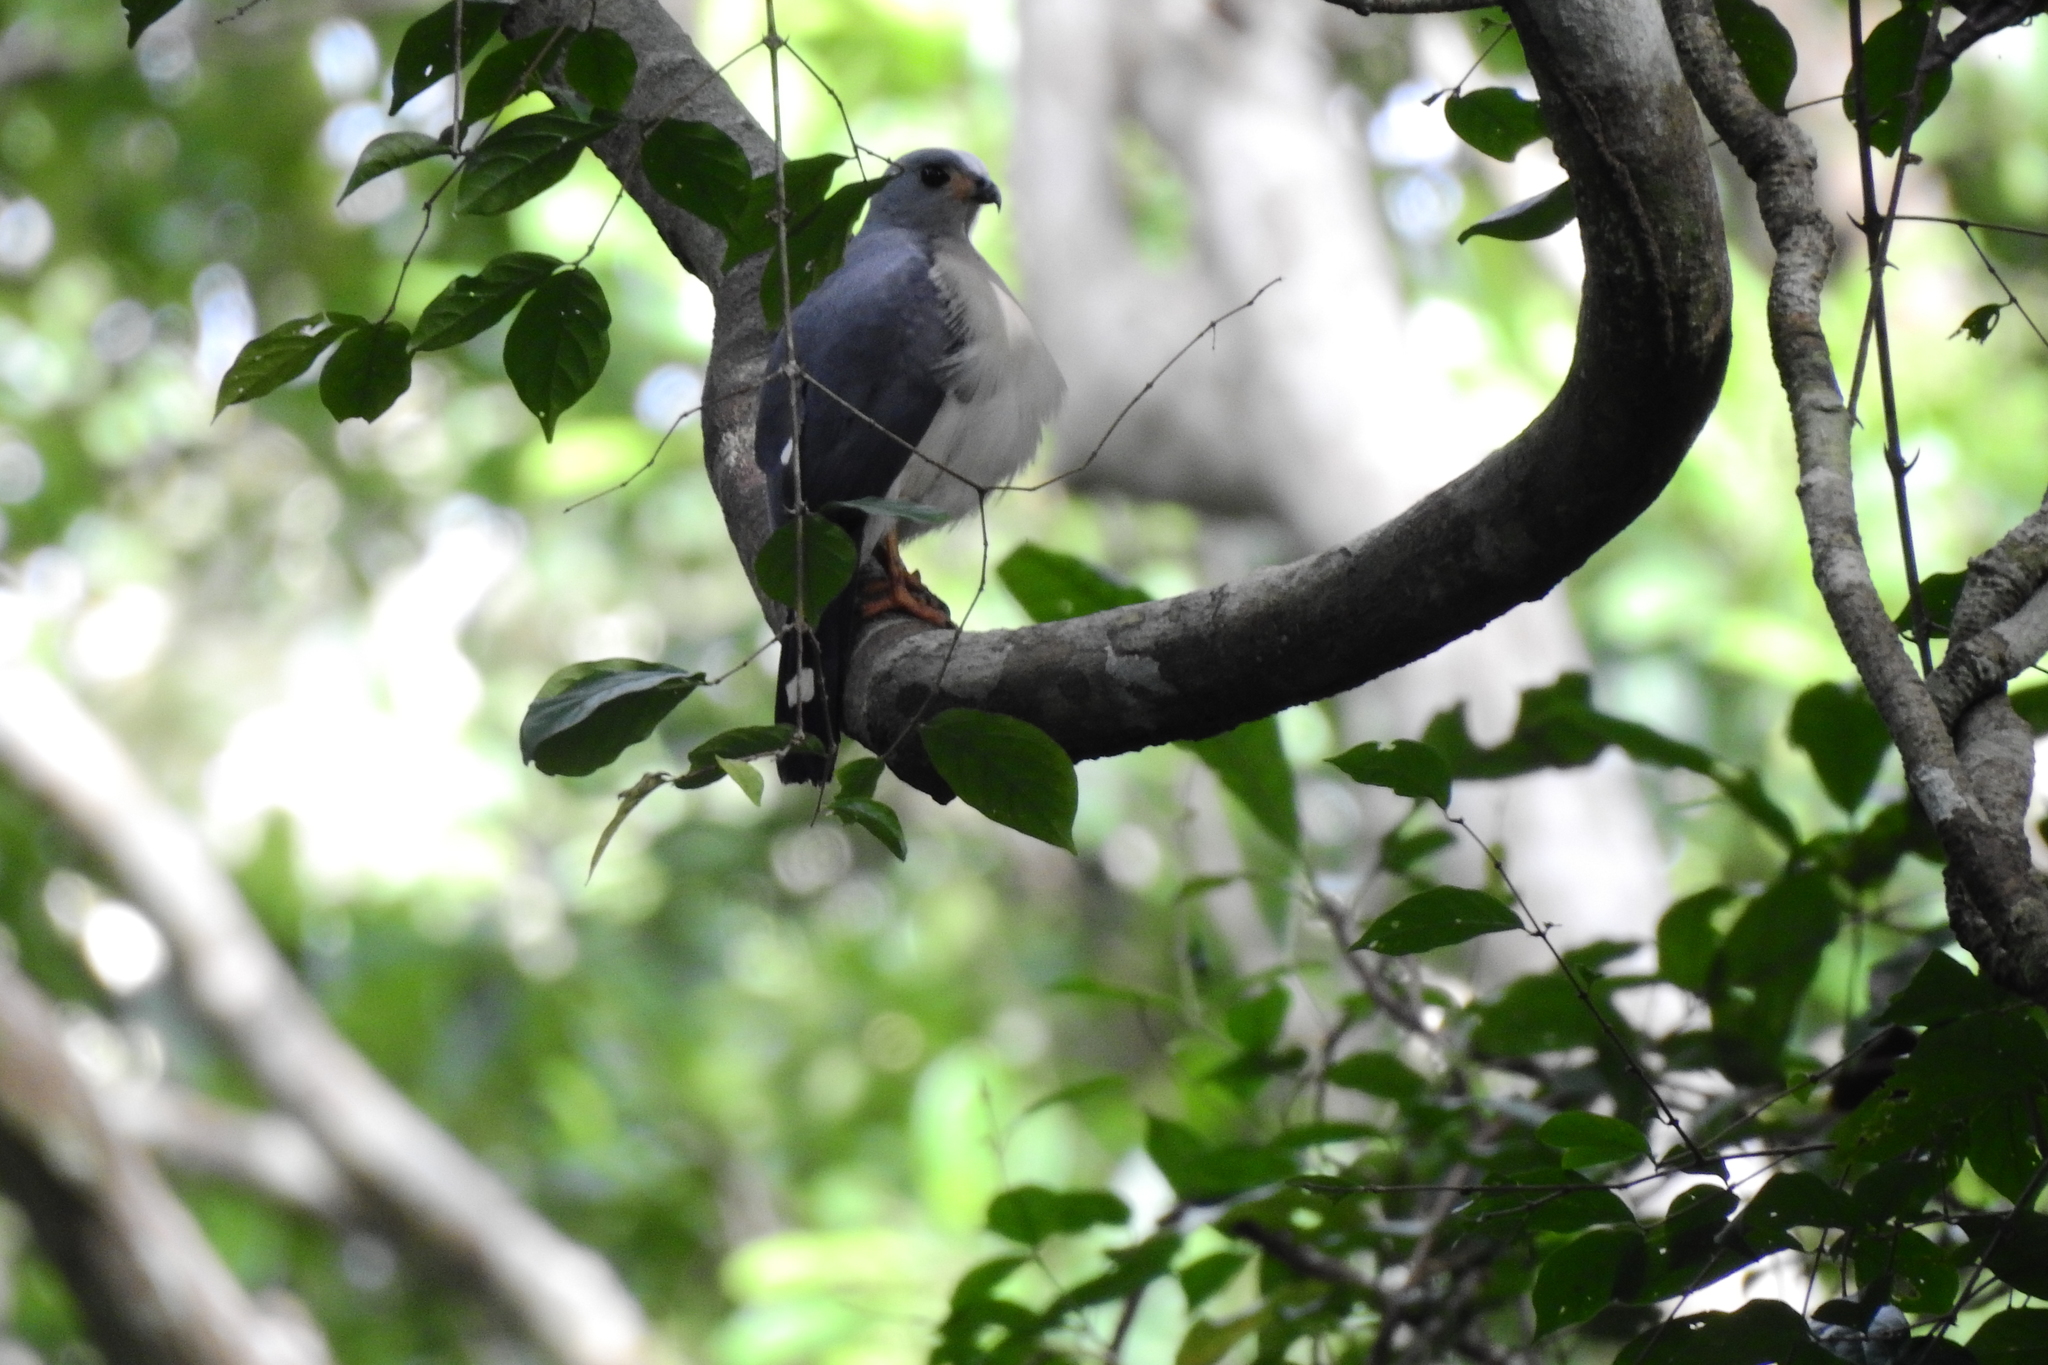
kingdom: Animalia
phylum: Chordata
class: Aves
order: Accipitriformes
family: Accipitridae
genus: Accipiter
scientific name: Accipiter trinotatus
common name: Spot-tailed sparrowhawk
